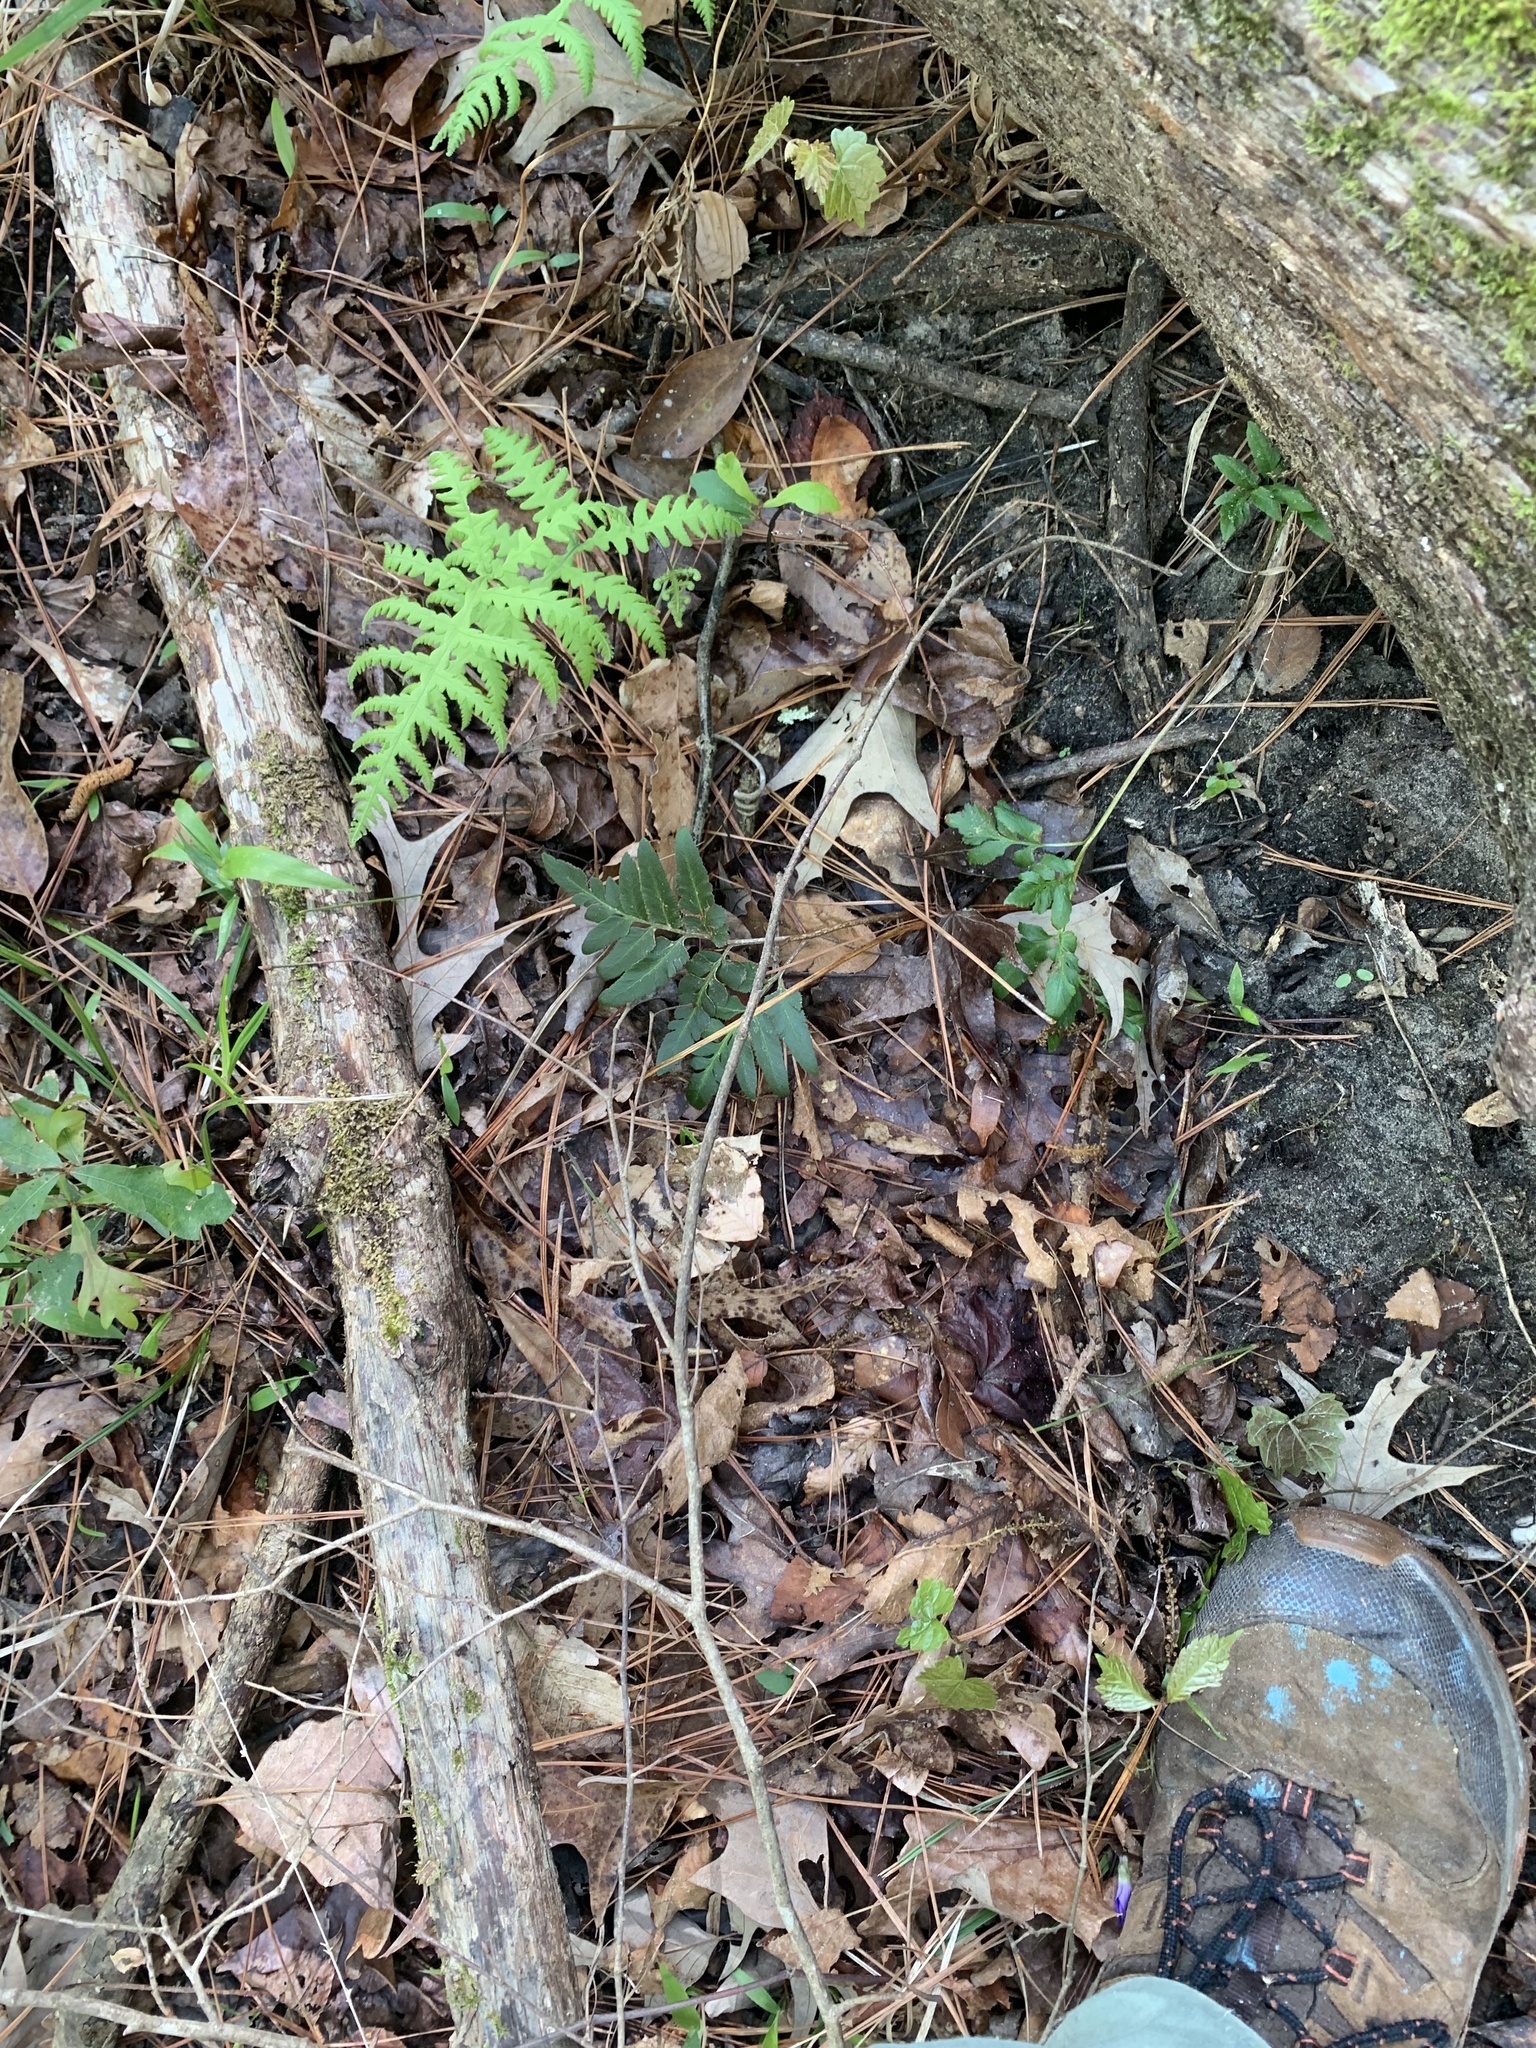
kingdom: Plantae
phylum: Tracheophyta
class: Polypodiopsida
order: Ophioglossales
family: Ophioglossaceae
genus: Sceptridium
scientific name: Sceptridium biternatum
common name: Sparse-lobed grapefern
